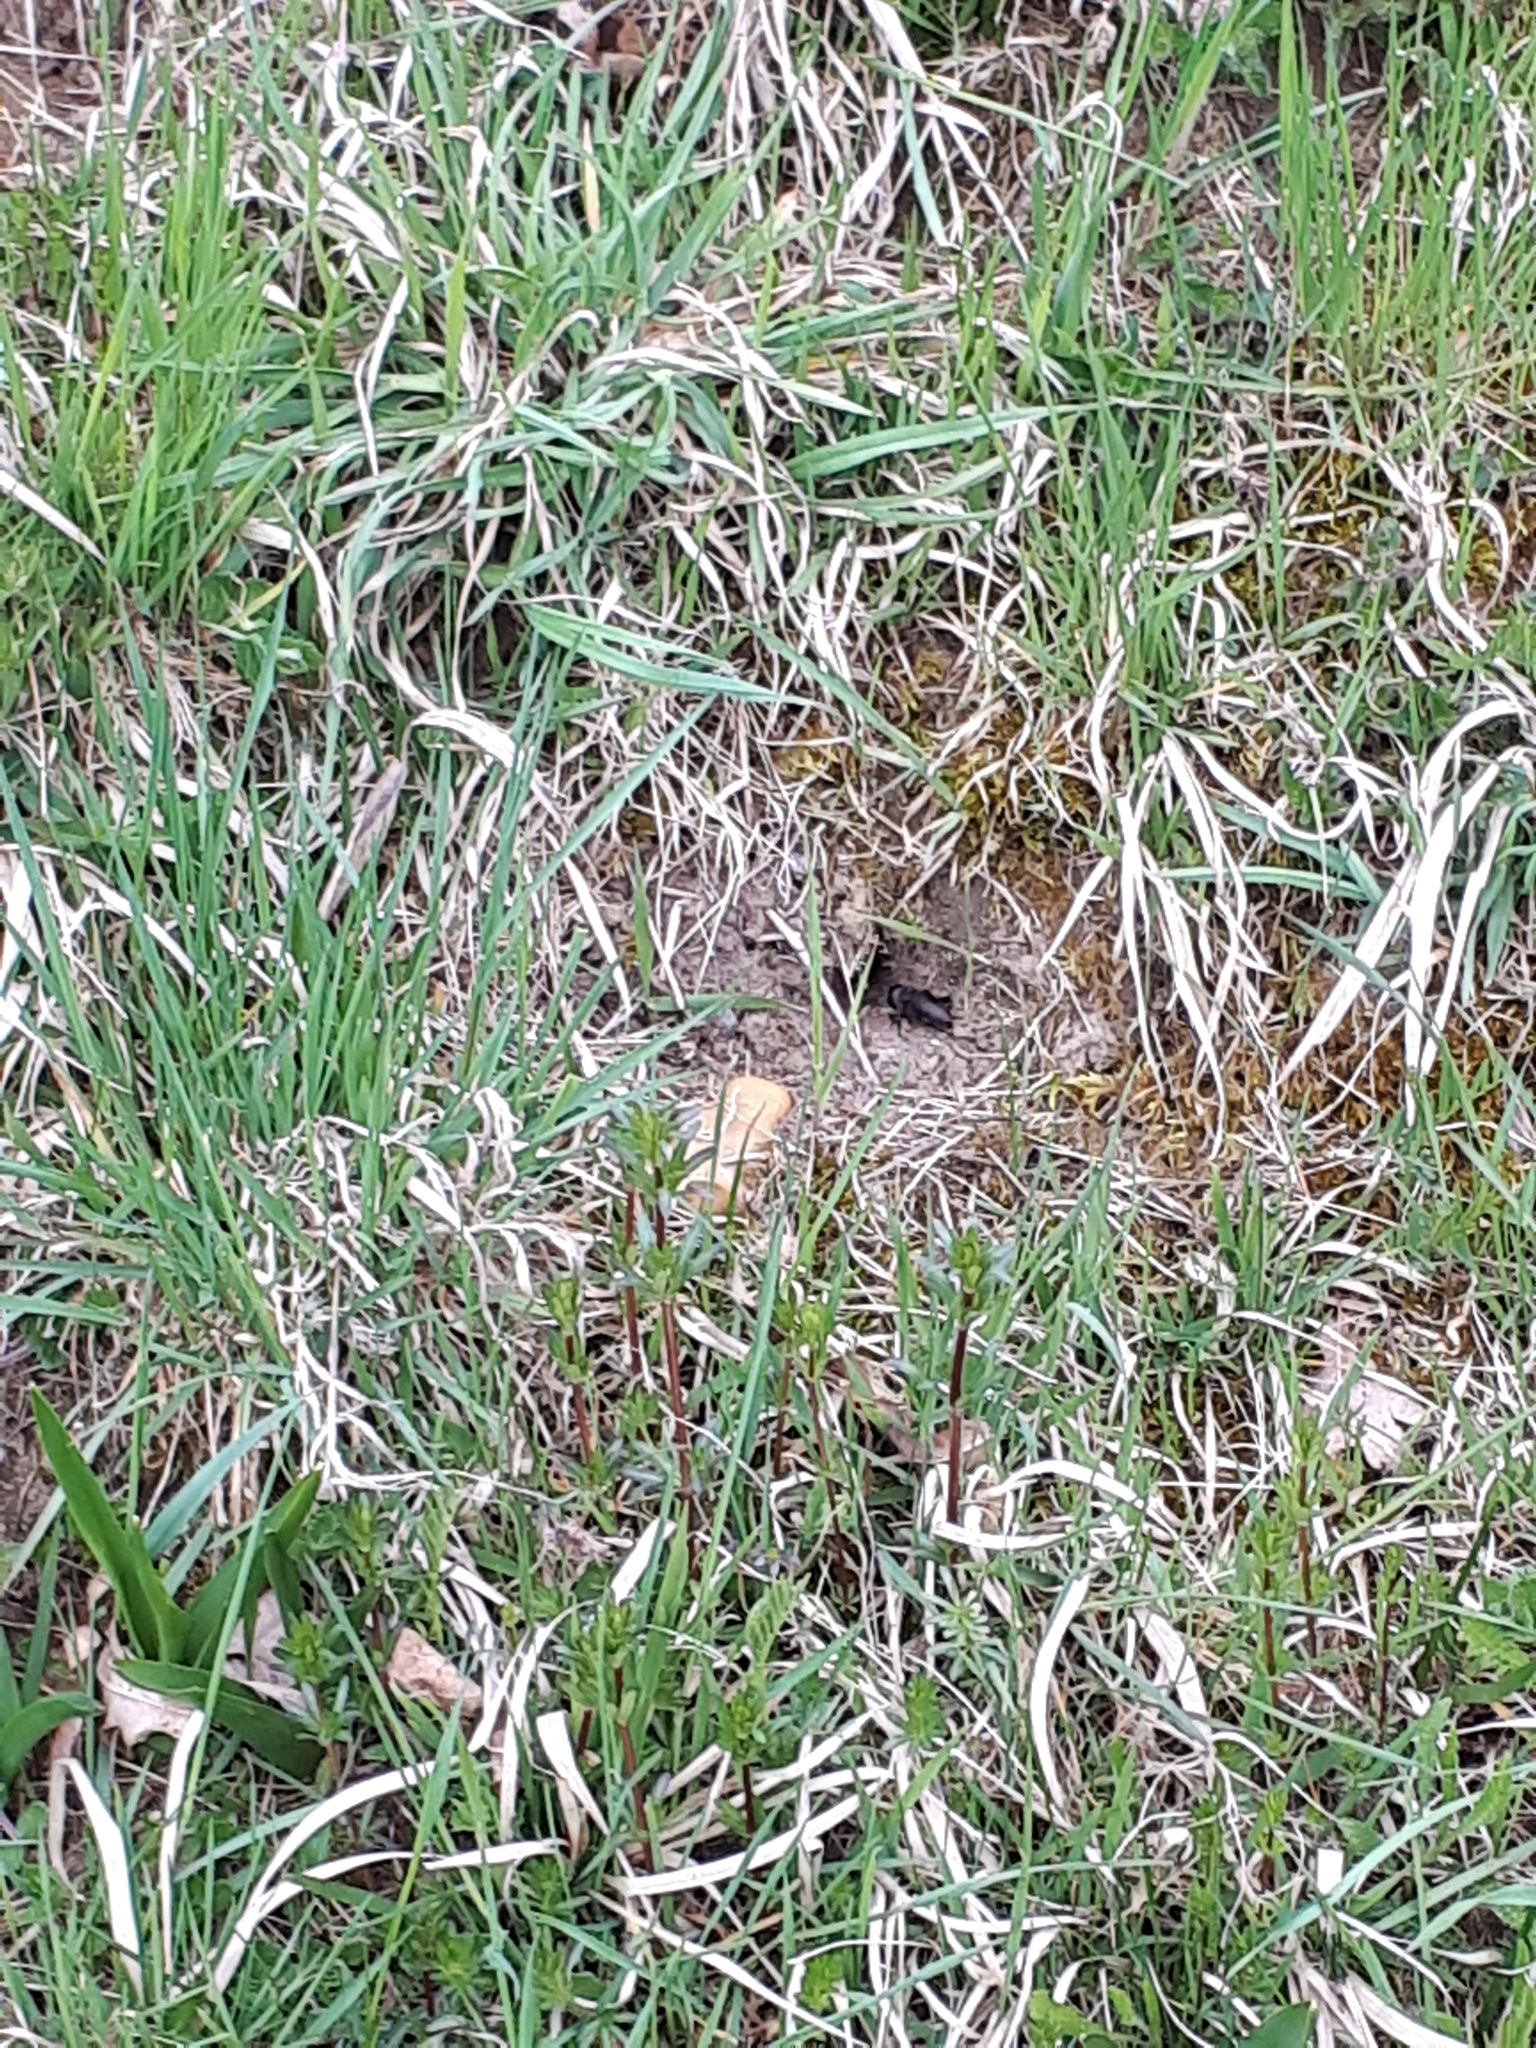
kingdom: Animalia
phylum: Arthropoda
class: Insecta
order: Orthoptera
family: Gryllidae
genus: Gryllus
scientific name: Gryllus campestris
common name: Field cricket
